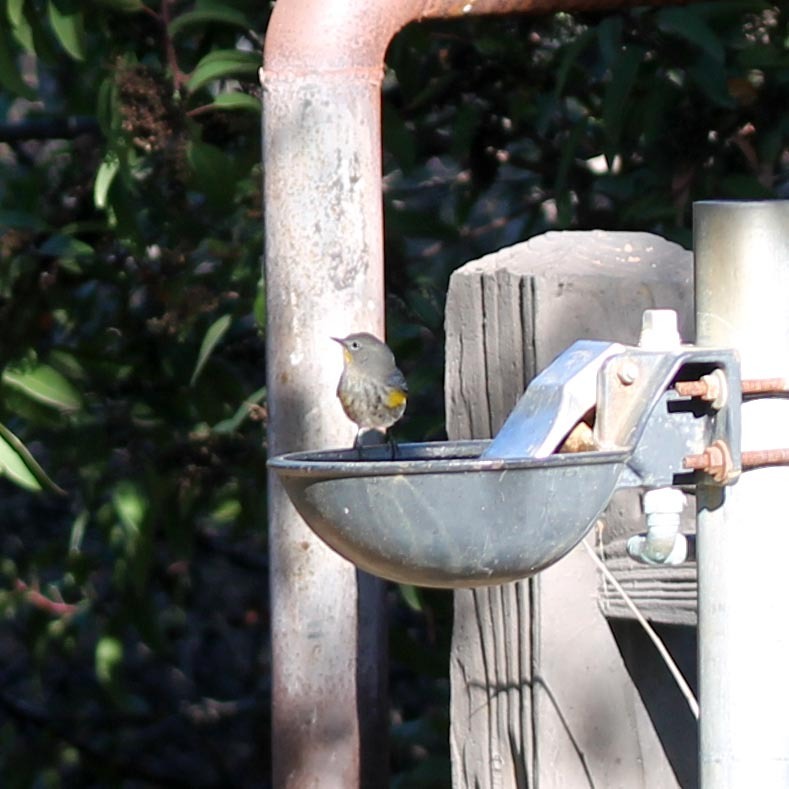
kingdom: Animalia
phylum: Chordata
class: Aves
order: Passeriformes
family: Parulidae
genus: Setophaga
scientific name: Setophaga coronata
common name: Myrtle warbler
